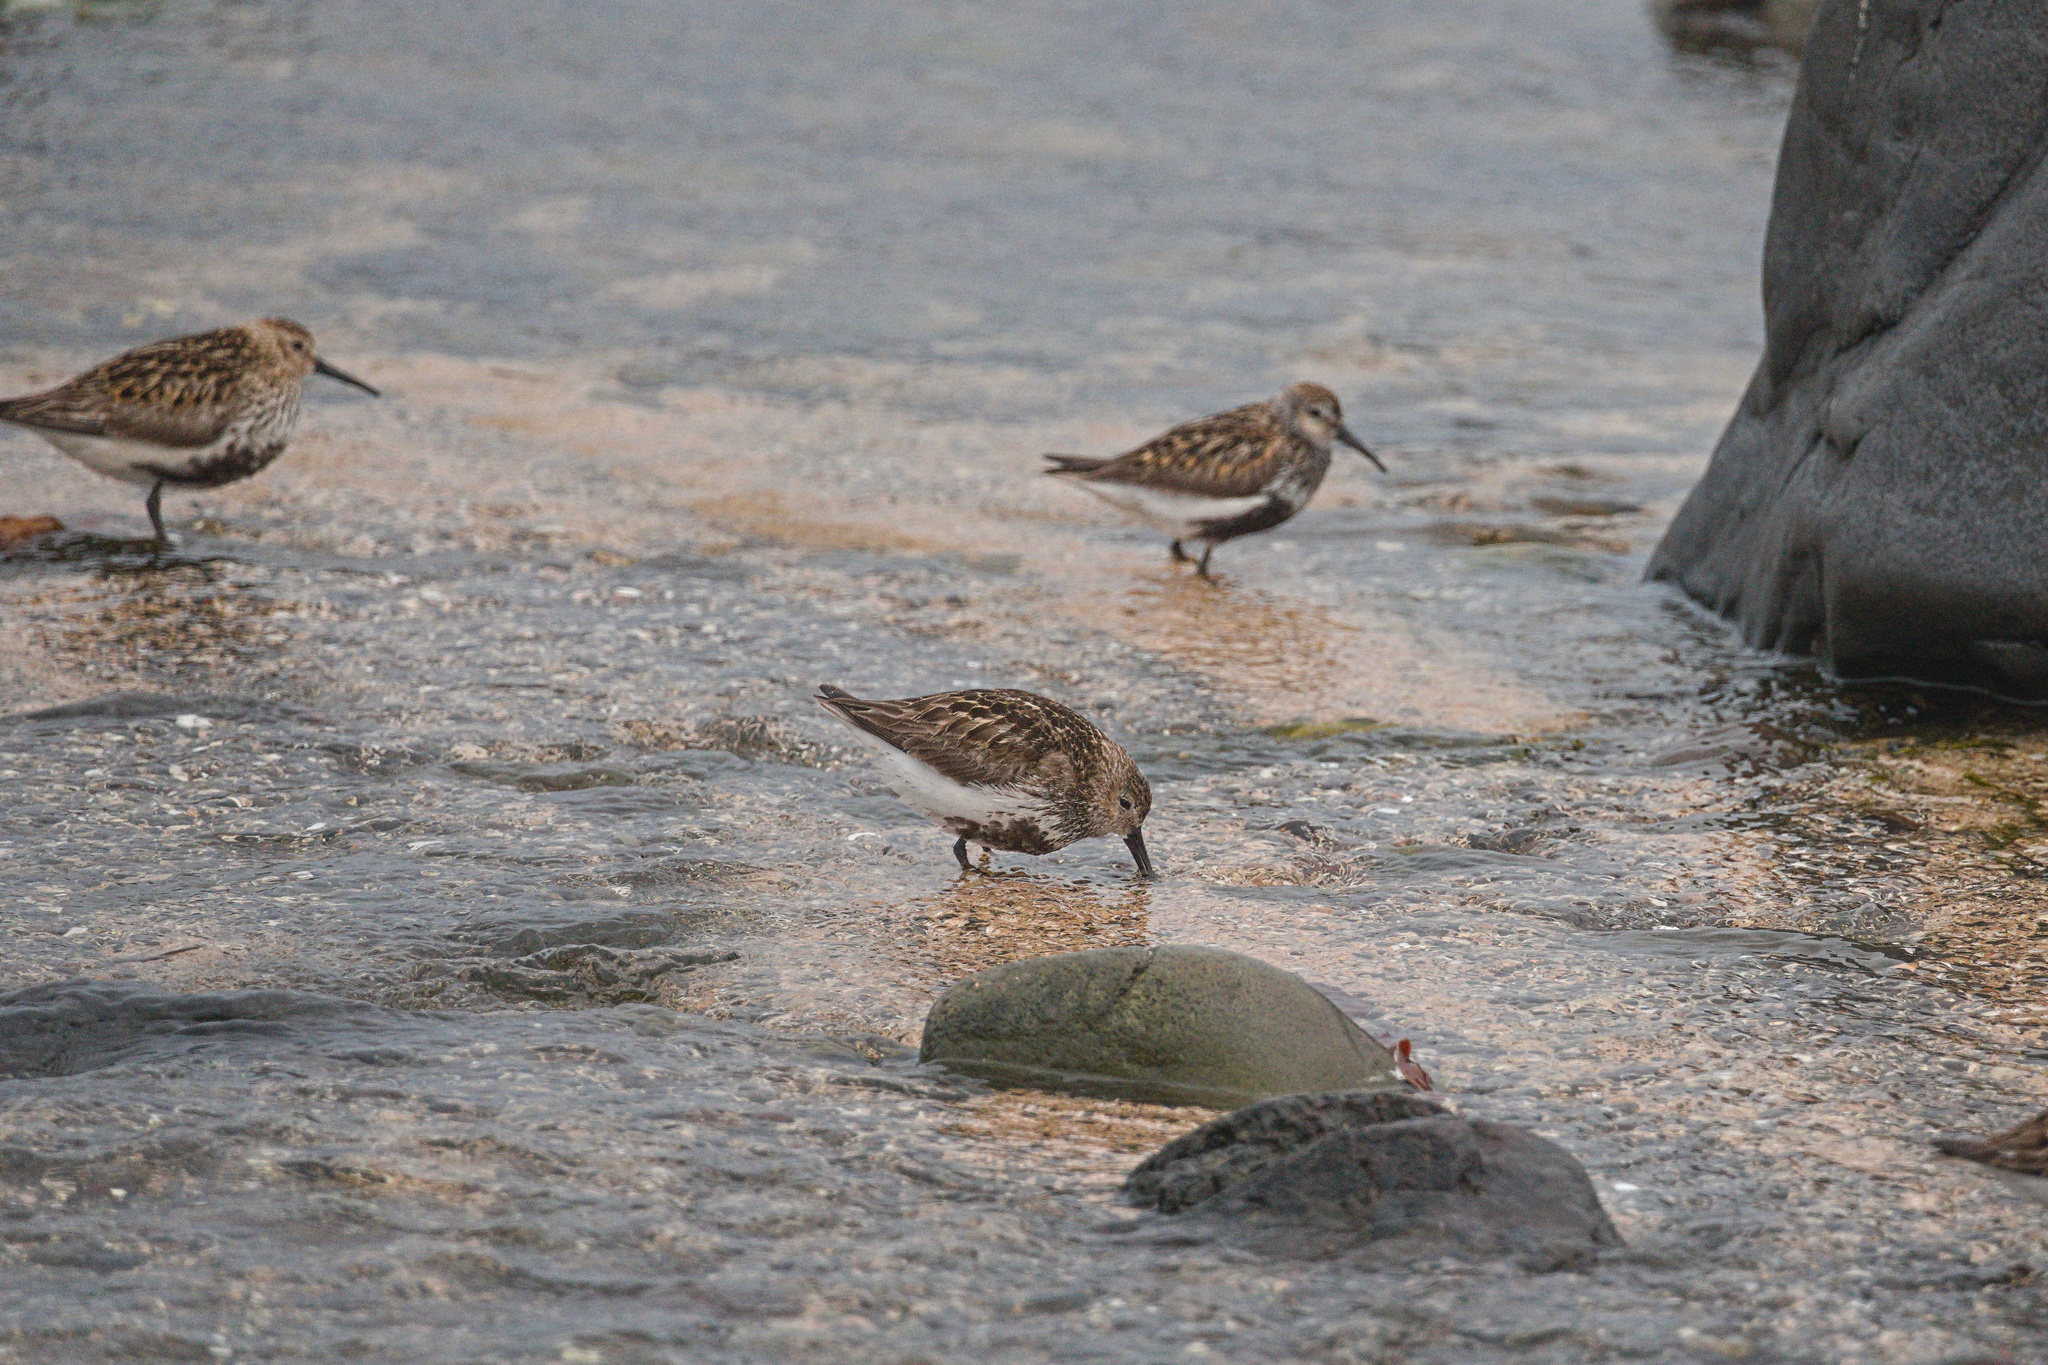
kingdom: Animalia
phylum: Chordata
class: Aves
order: Charadriiformes
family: Scolopacidae
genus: Calidris
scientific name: Calidris alpina
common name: Dunlin
